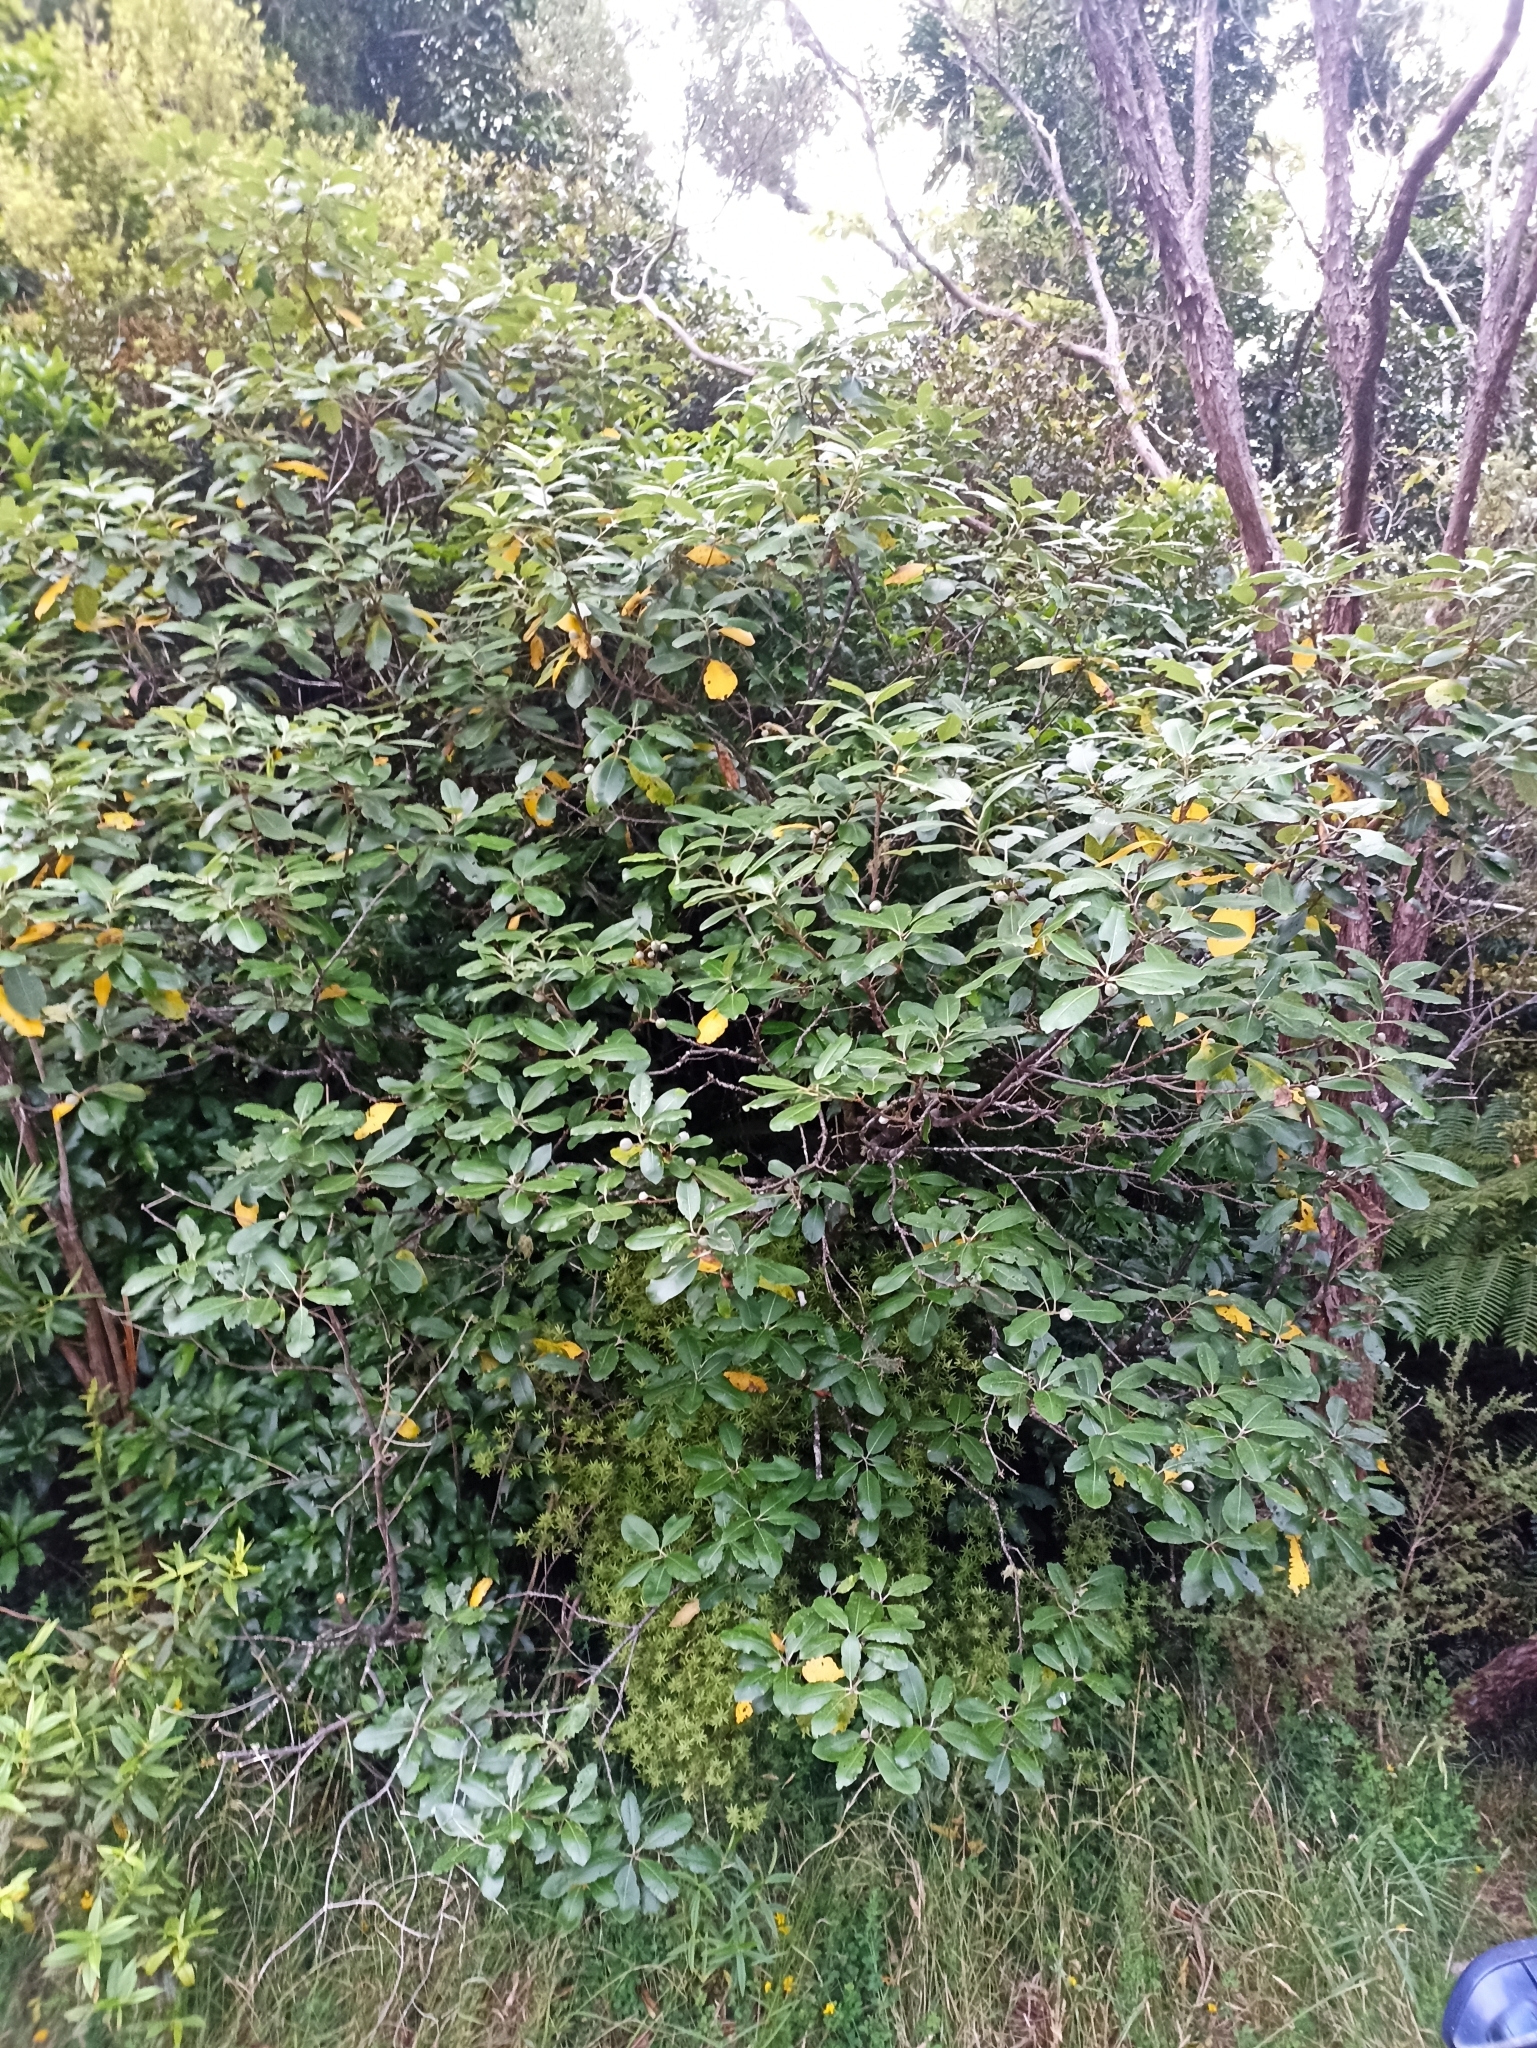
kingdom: Plantae
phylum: Tracheophyta
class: Magnoliopsida
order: Apiales
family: Pittosporaceae
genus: Pittosporum
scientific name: Pittosporum huttonianum
